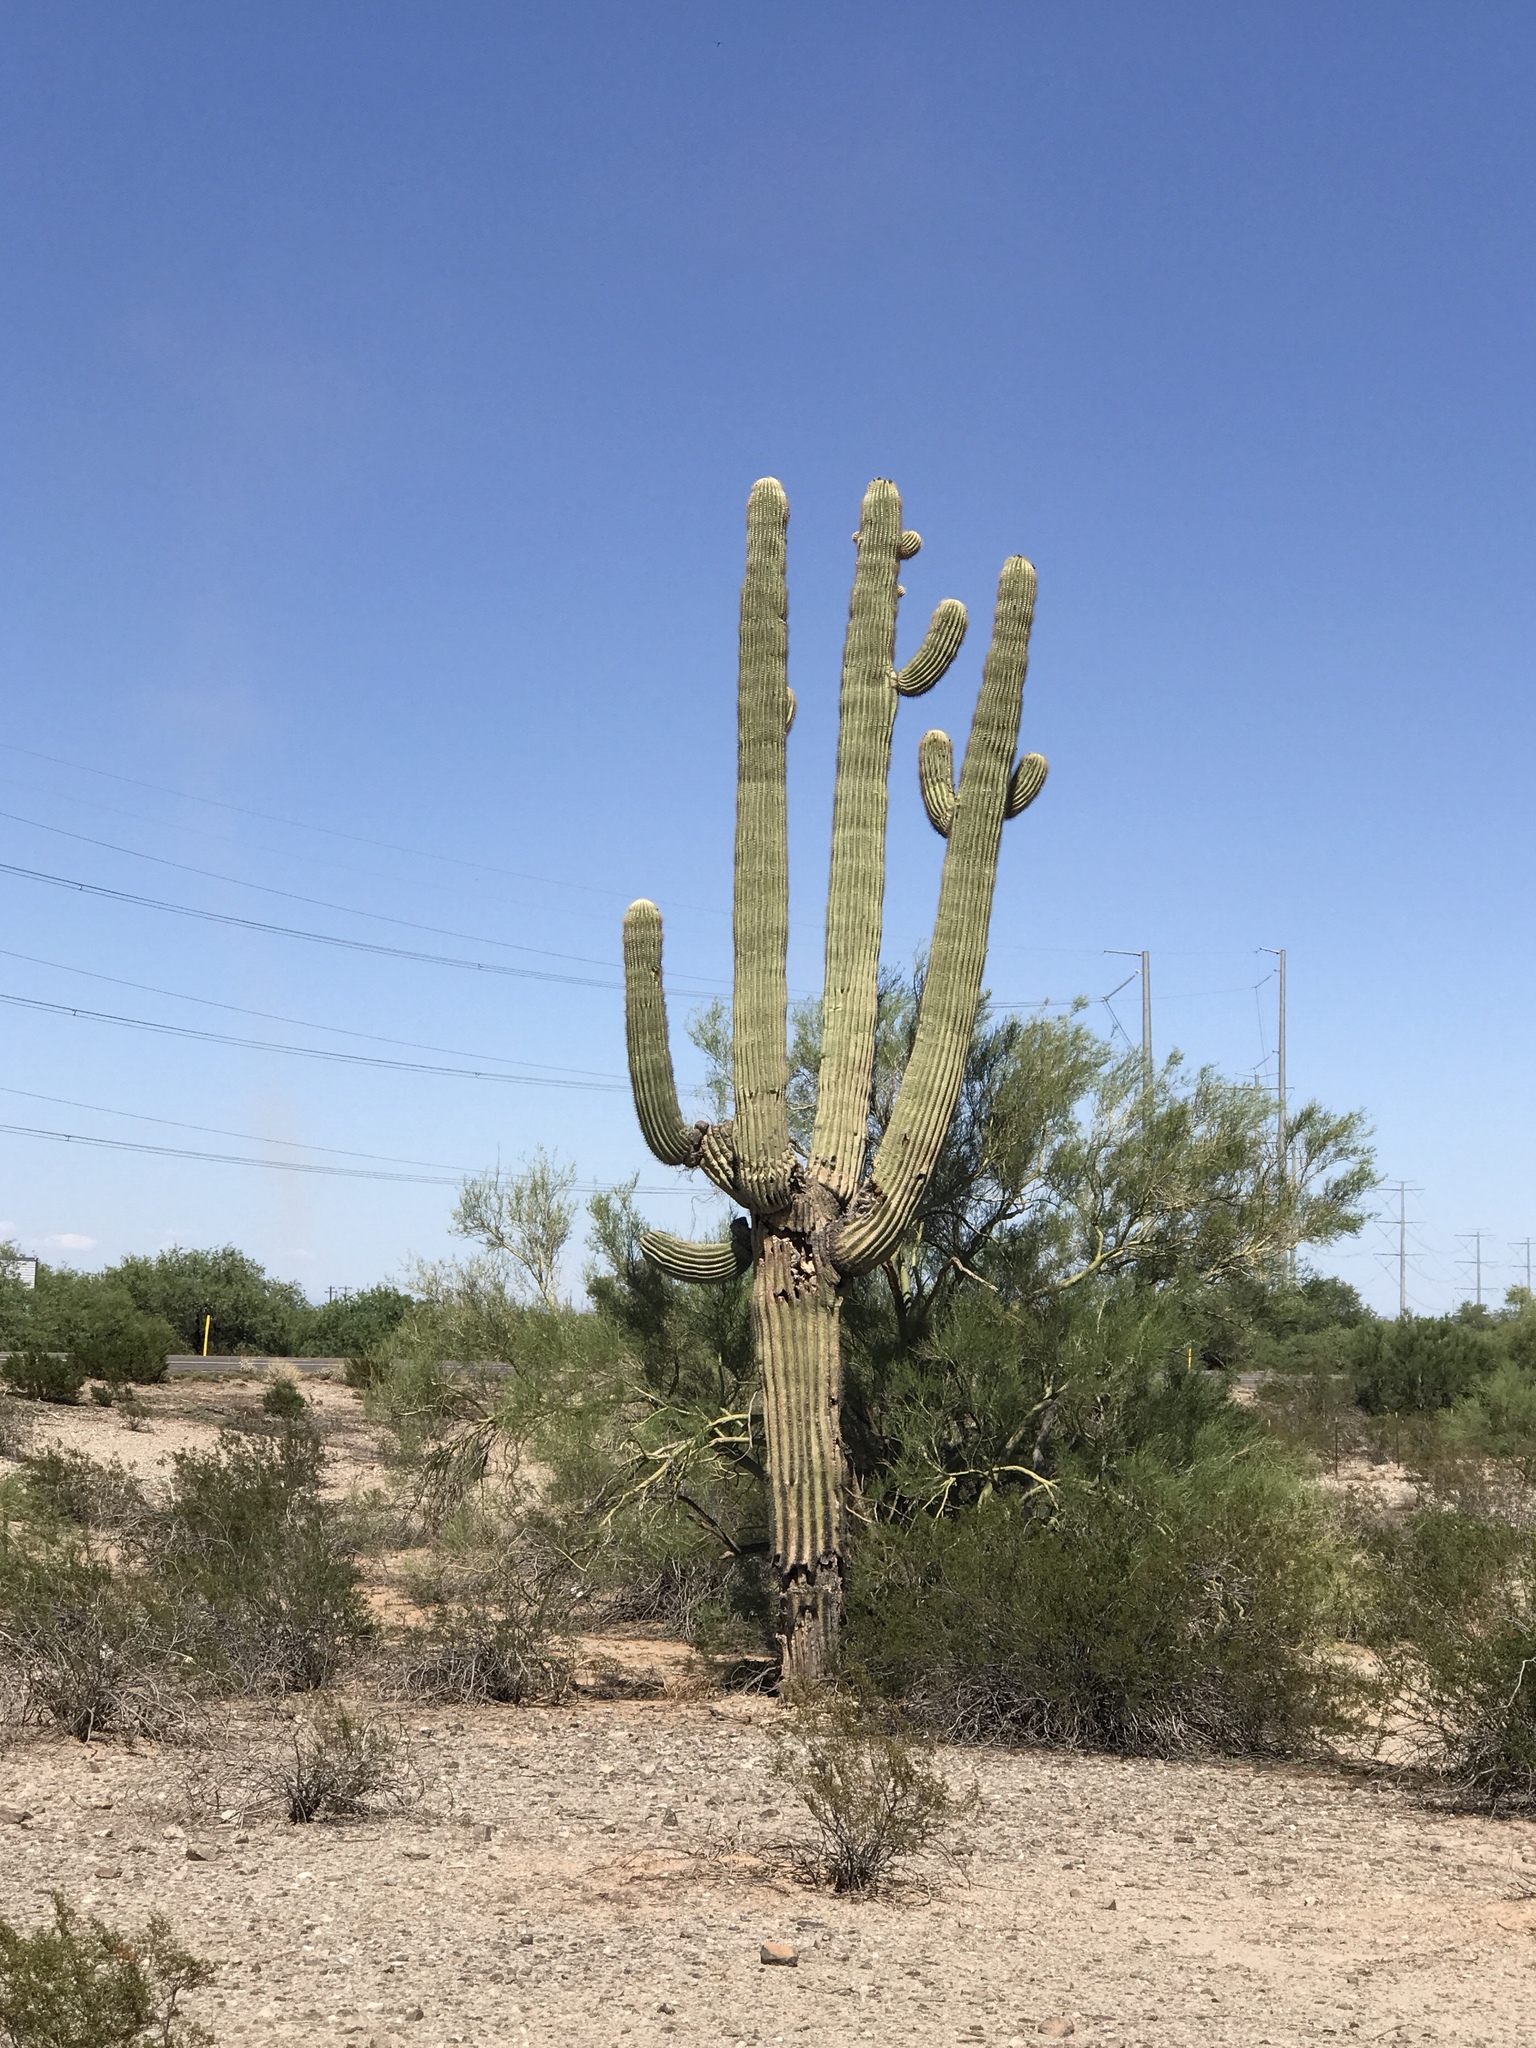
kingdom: Plantae
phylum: Tracheophyta
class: Magnoliopsida
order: Caryophyllales
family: Cactaceae
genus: Carnegiea
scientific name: Carnegiea gigantea
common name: Saguaro
